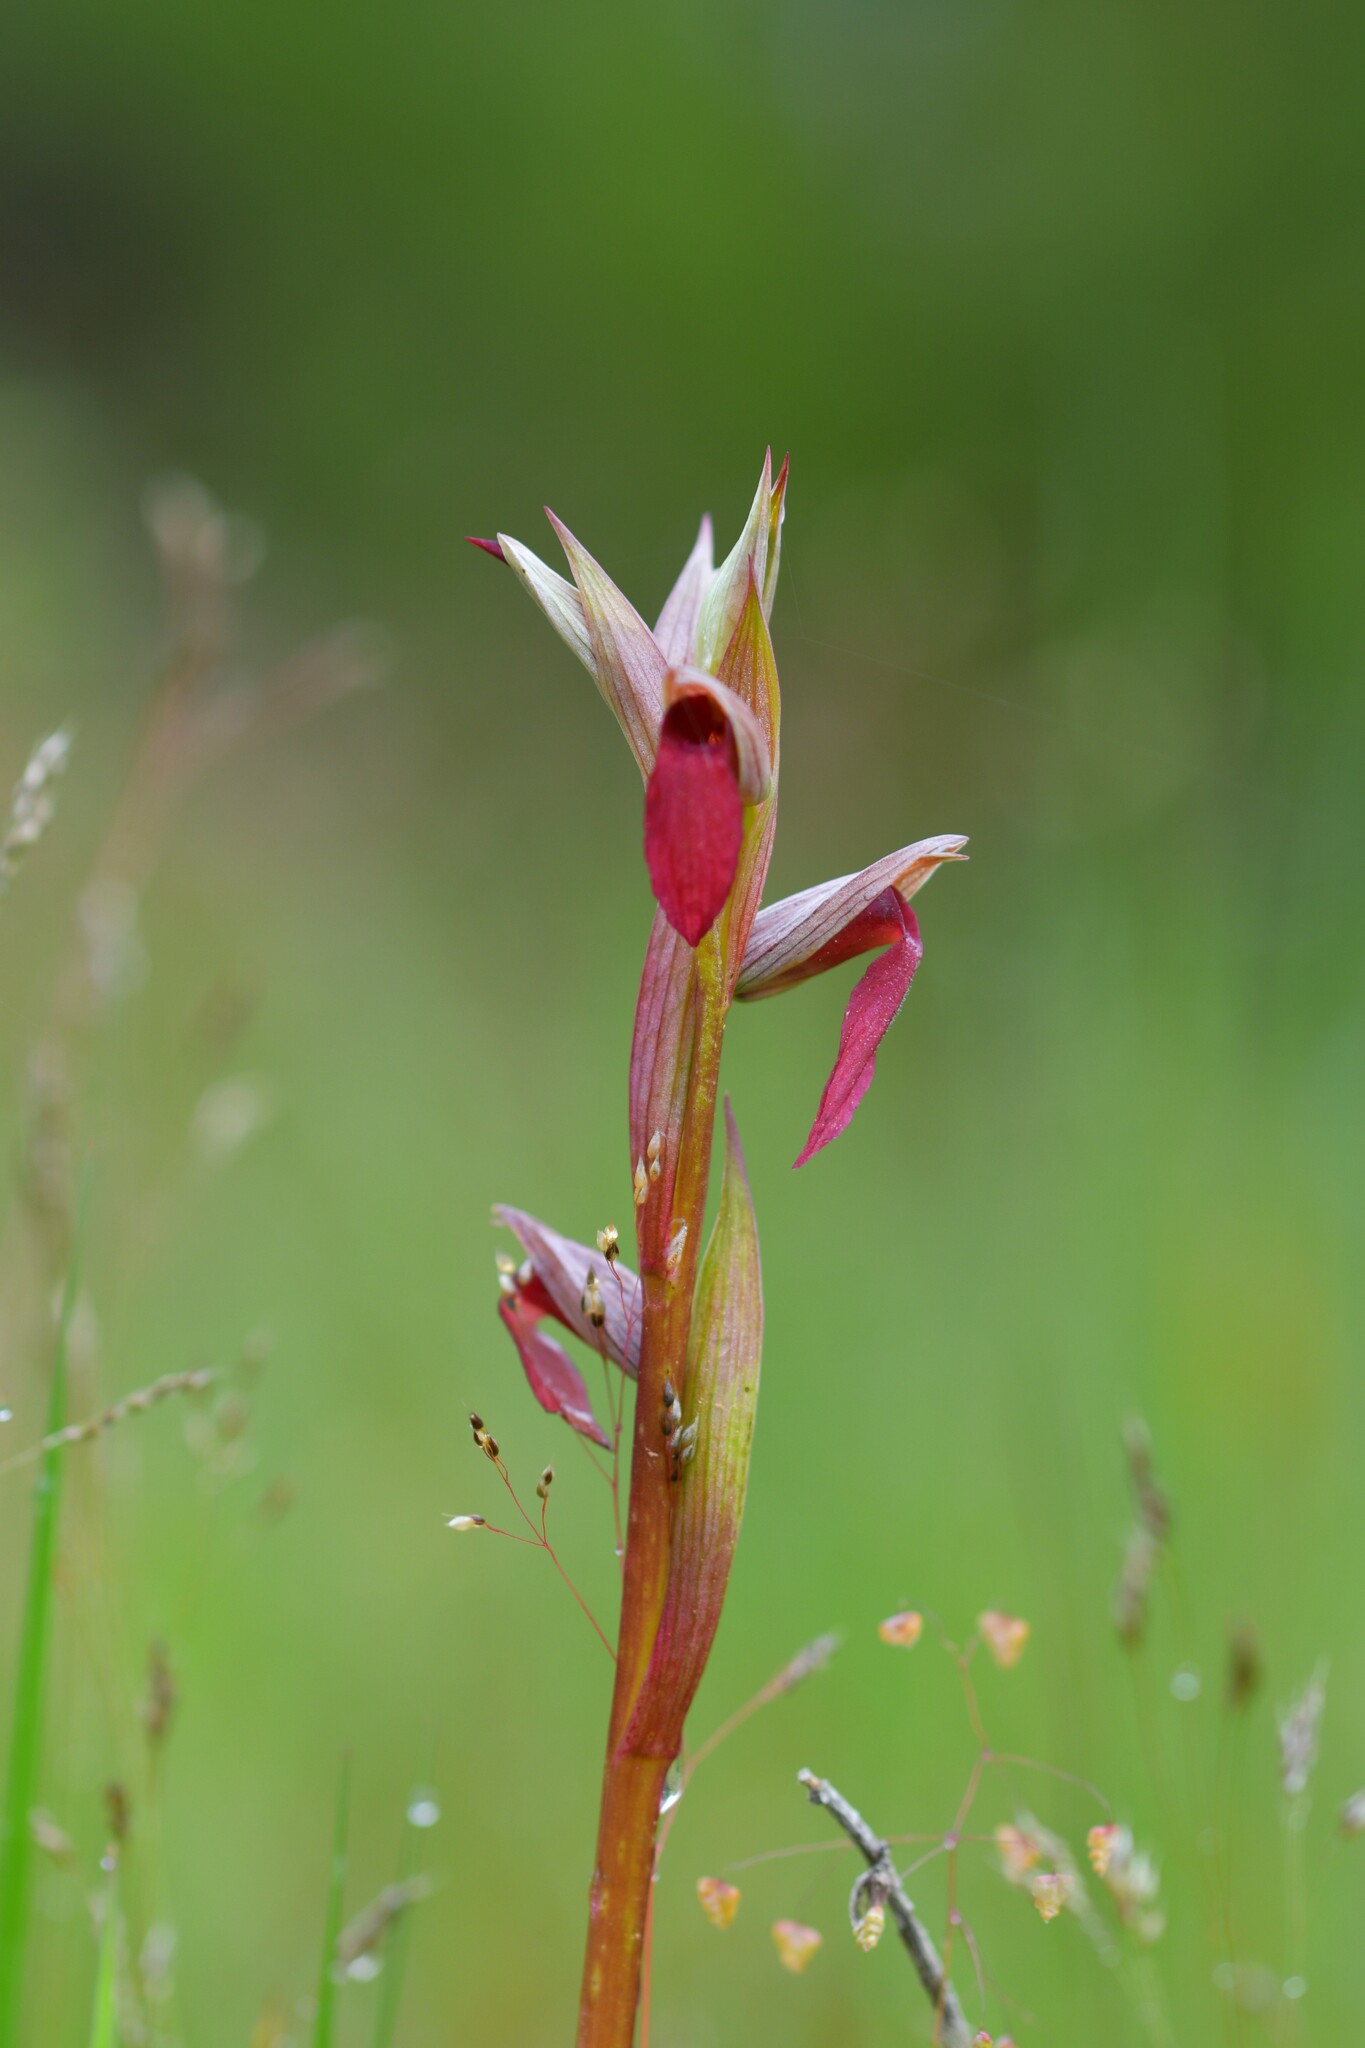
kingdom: Plantae
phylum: Tracheophyta
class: Liliopsida
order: Asparagales
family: Orchidaceae
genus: Serapias
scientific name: Serapias strictiflora
